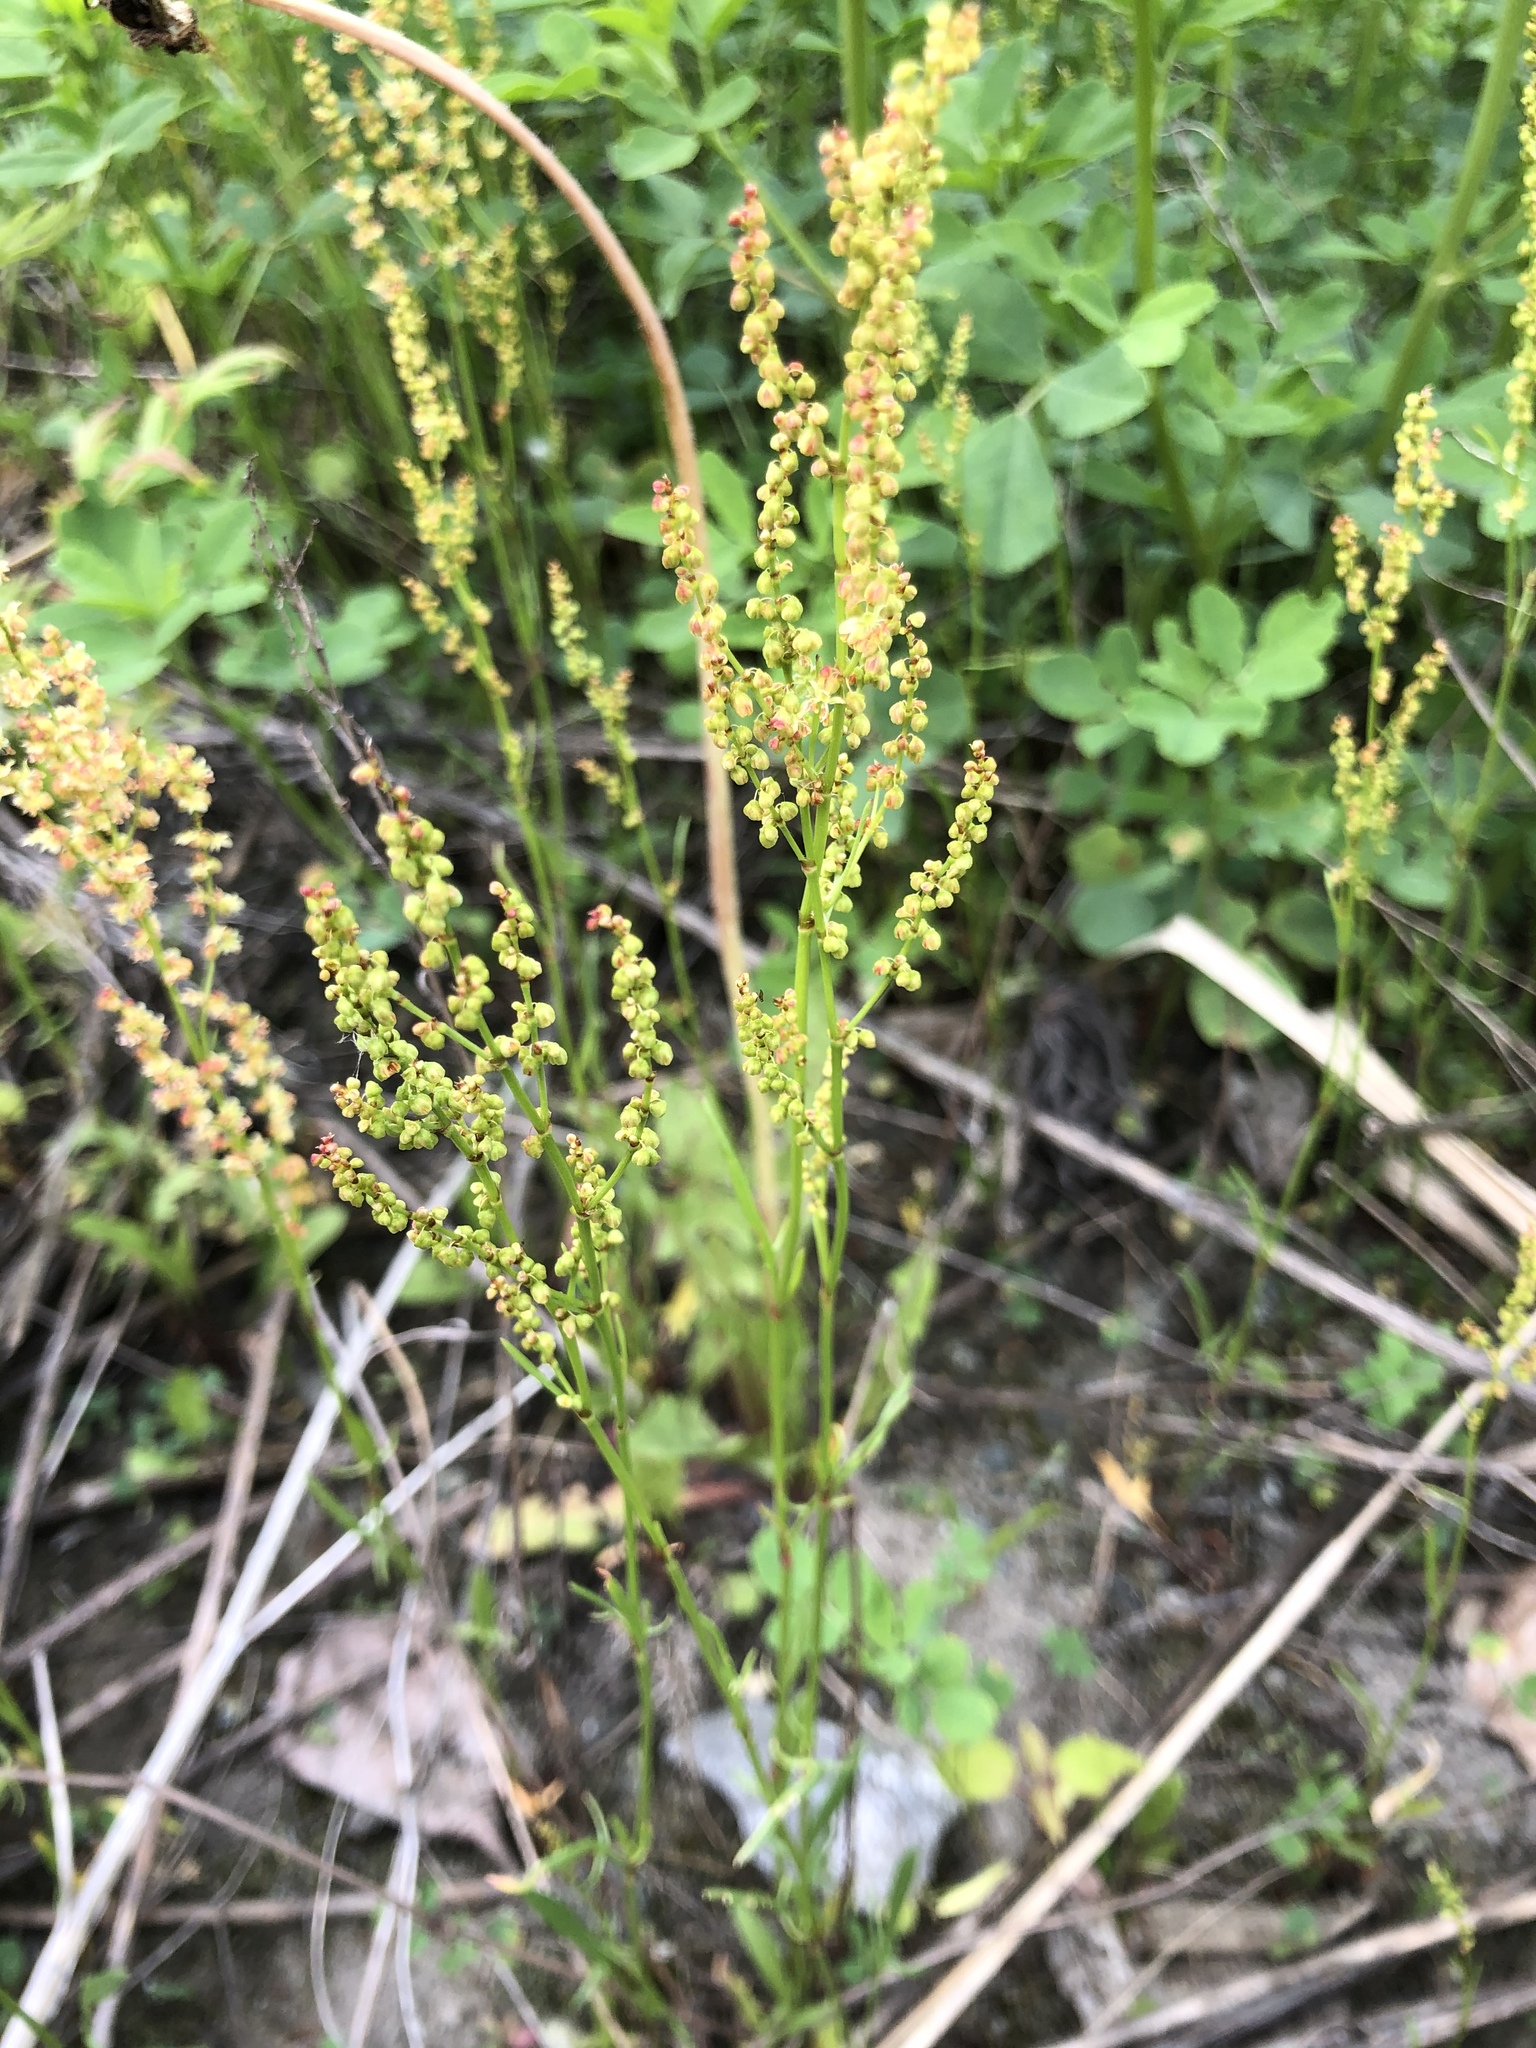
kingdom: Plantae
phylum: Tracheophyta
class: Magnoliopsida
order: Caryophyllales
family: Polygonaceae
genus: Rumex
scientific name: Rumex acetosella
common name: Common sheep sorrel
